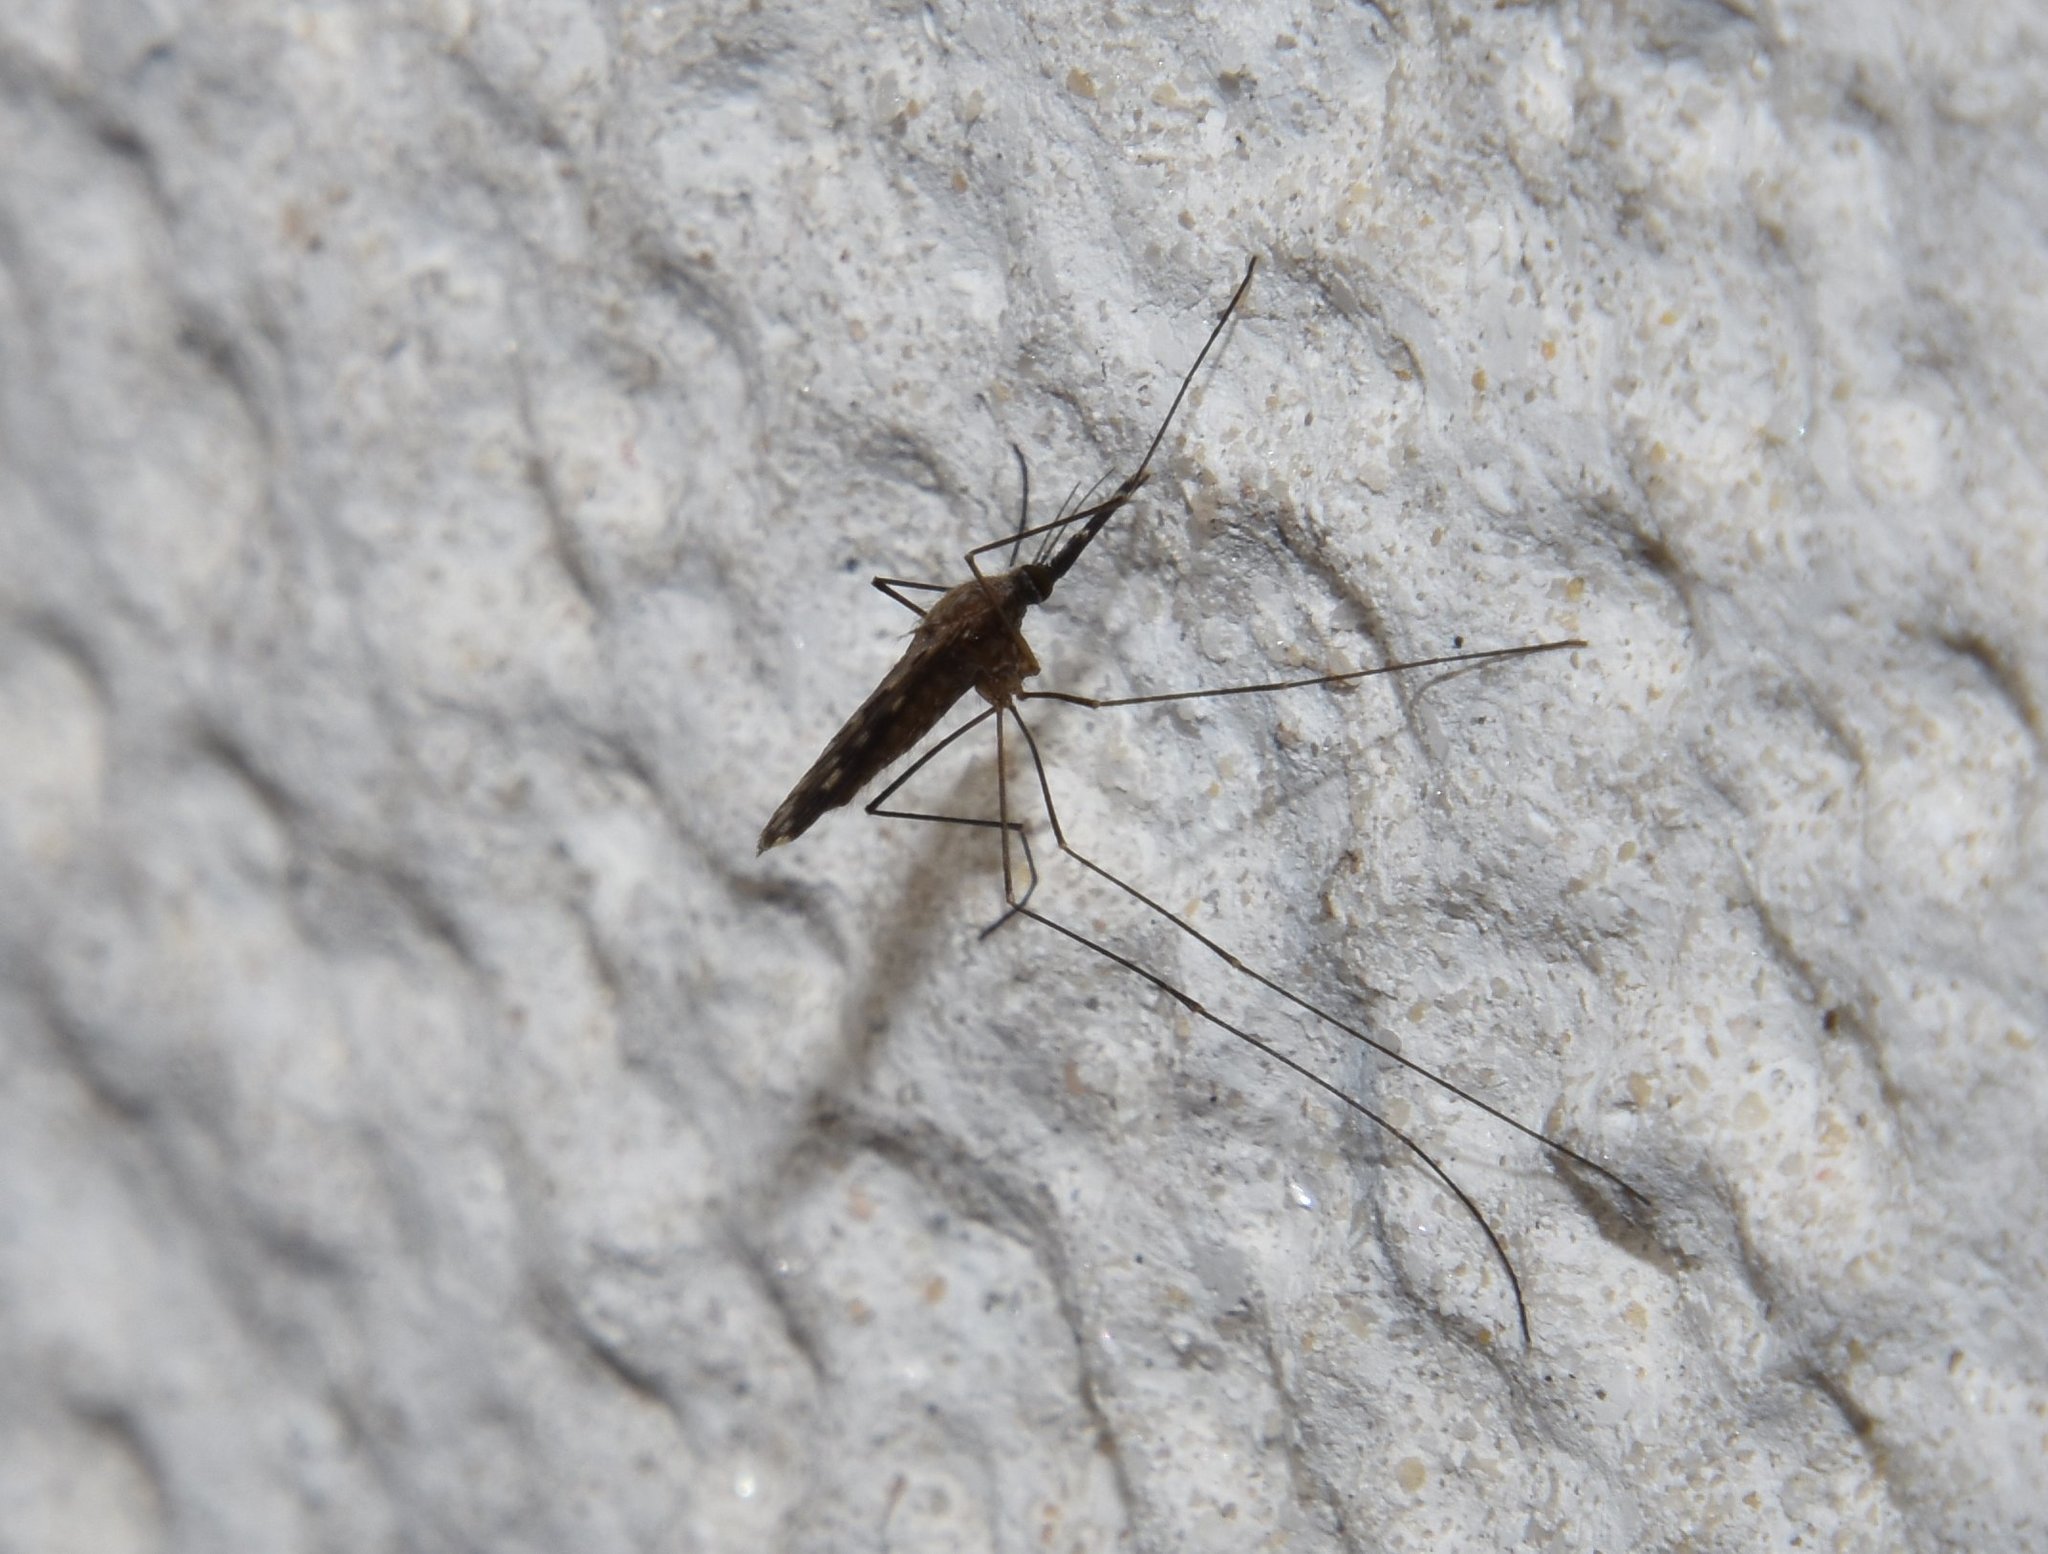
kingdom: Animalia
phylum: Arthropoda
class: Insecta
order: Diptera
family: Culicidae
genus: Anopheles
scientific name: Anopheles
